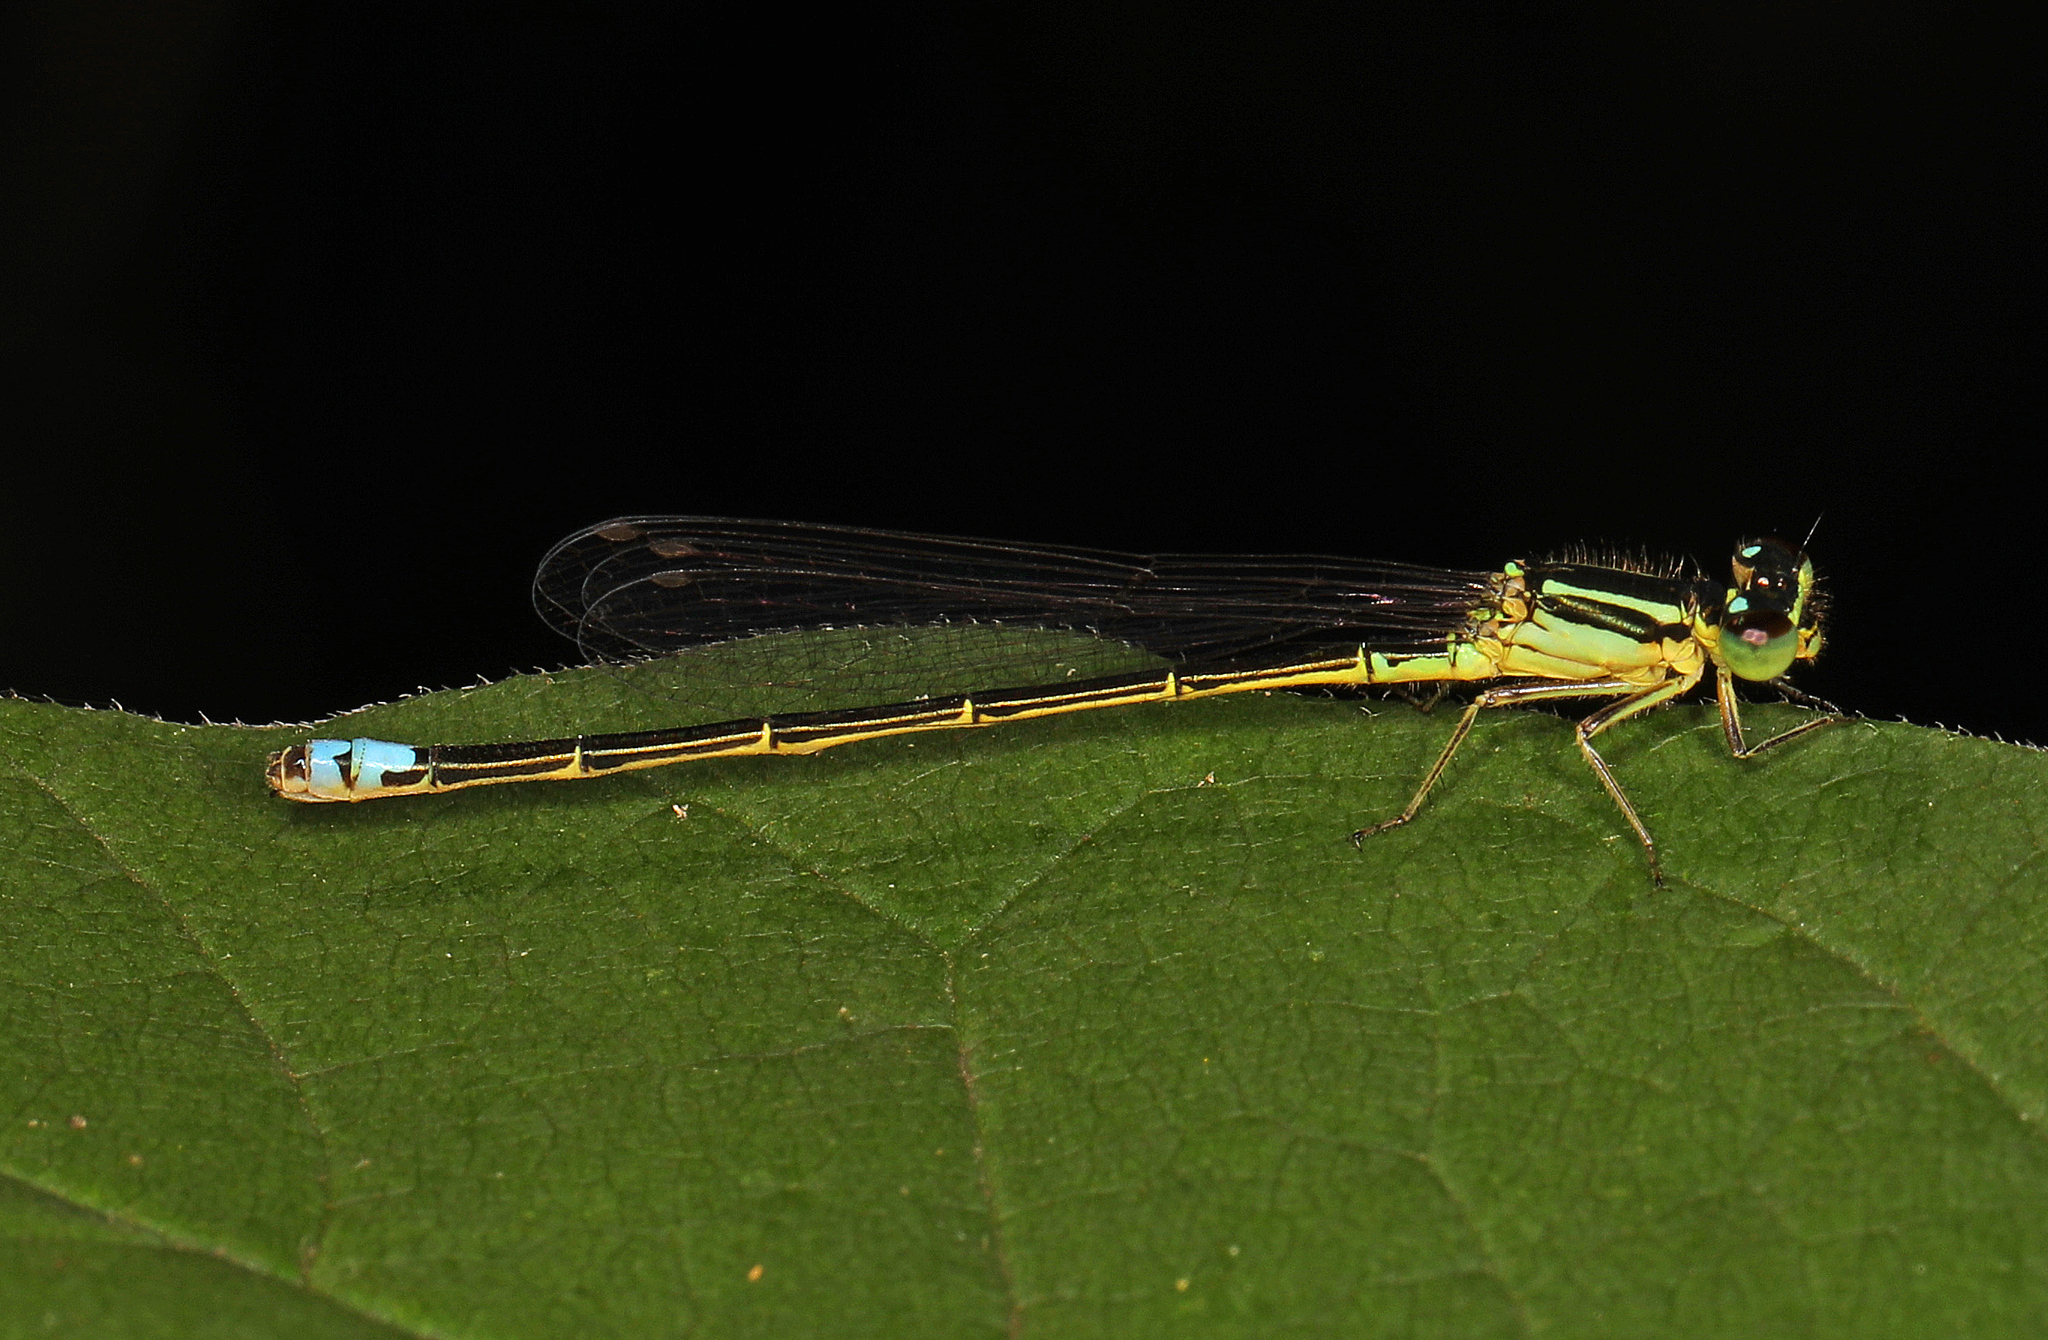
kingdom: Animalia
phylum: Arthropoda
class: Insecta
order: Odonata
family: Coenagrionidae
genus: Ischnura
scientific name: Ischnura verticalis
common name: Eastern forktail
